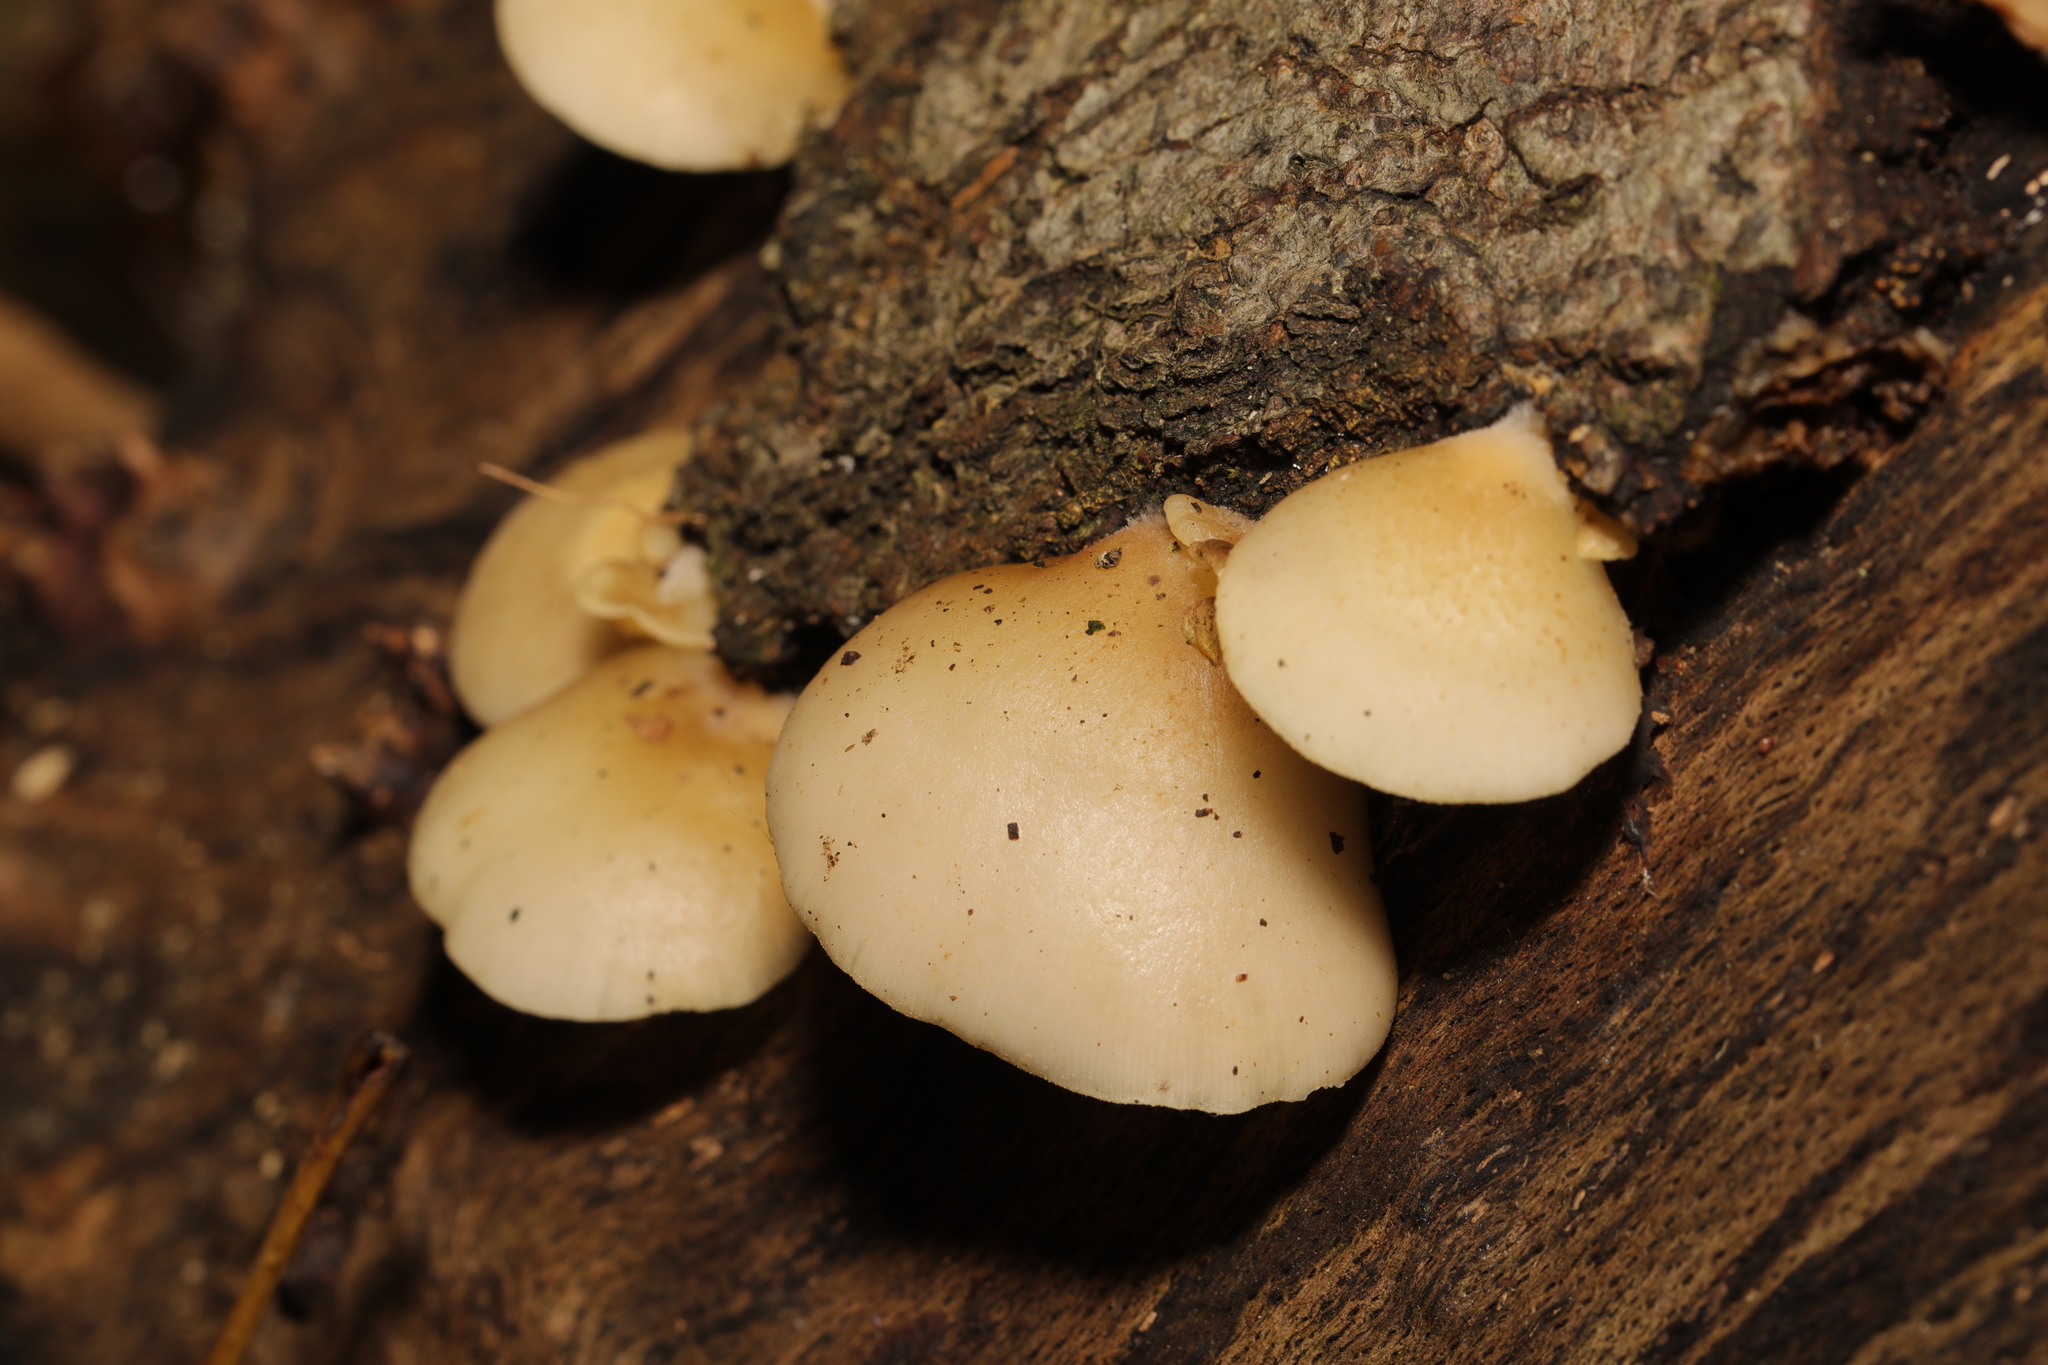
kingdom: Fungi
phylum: Basidiomycota
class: Agaricomycetes
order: Agaricales
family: Crepidotaceae
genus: Crepidotus
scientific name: Crepidotus mollis
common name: Peeling oysterling
